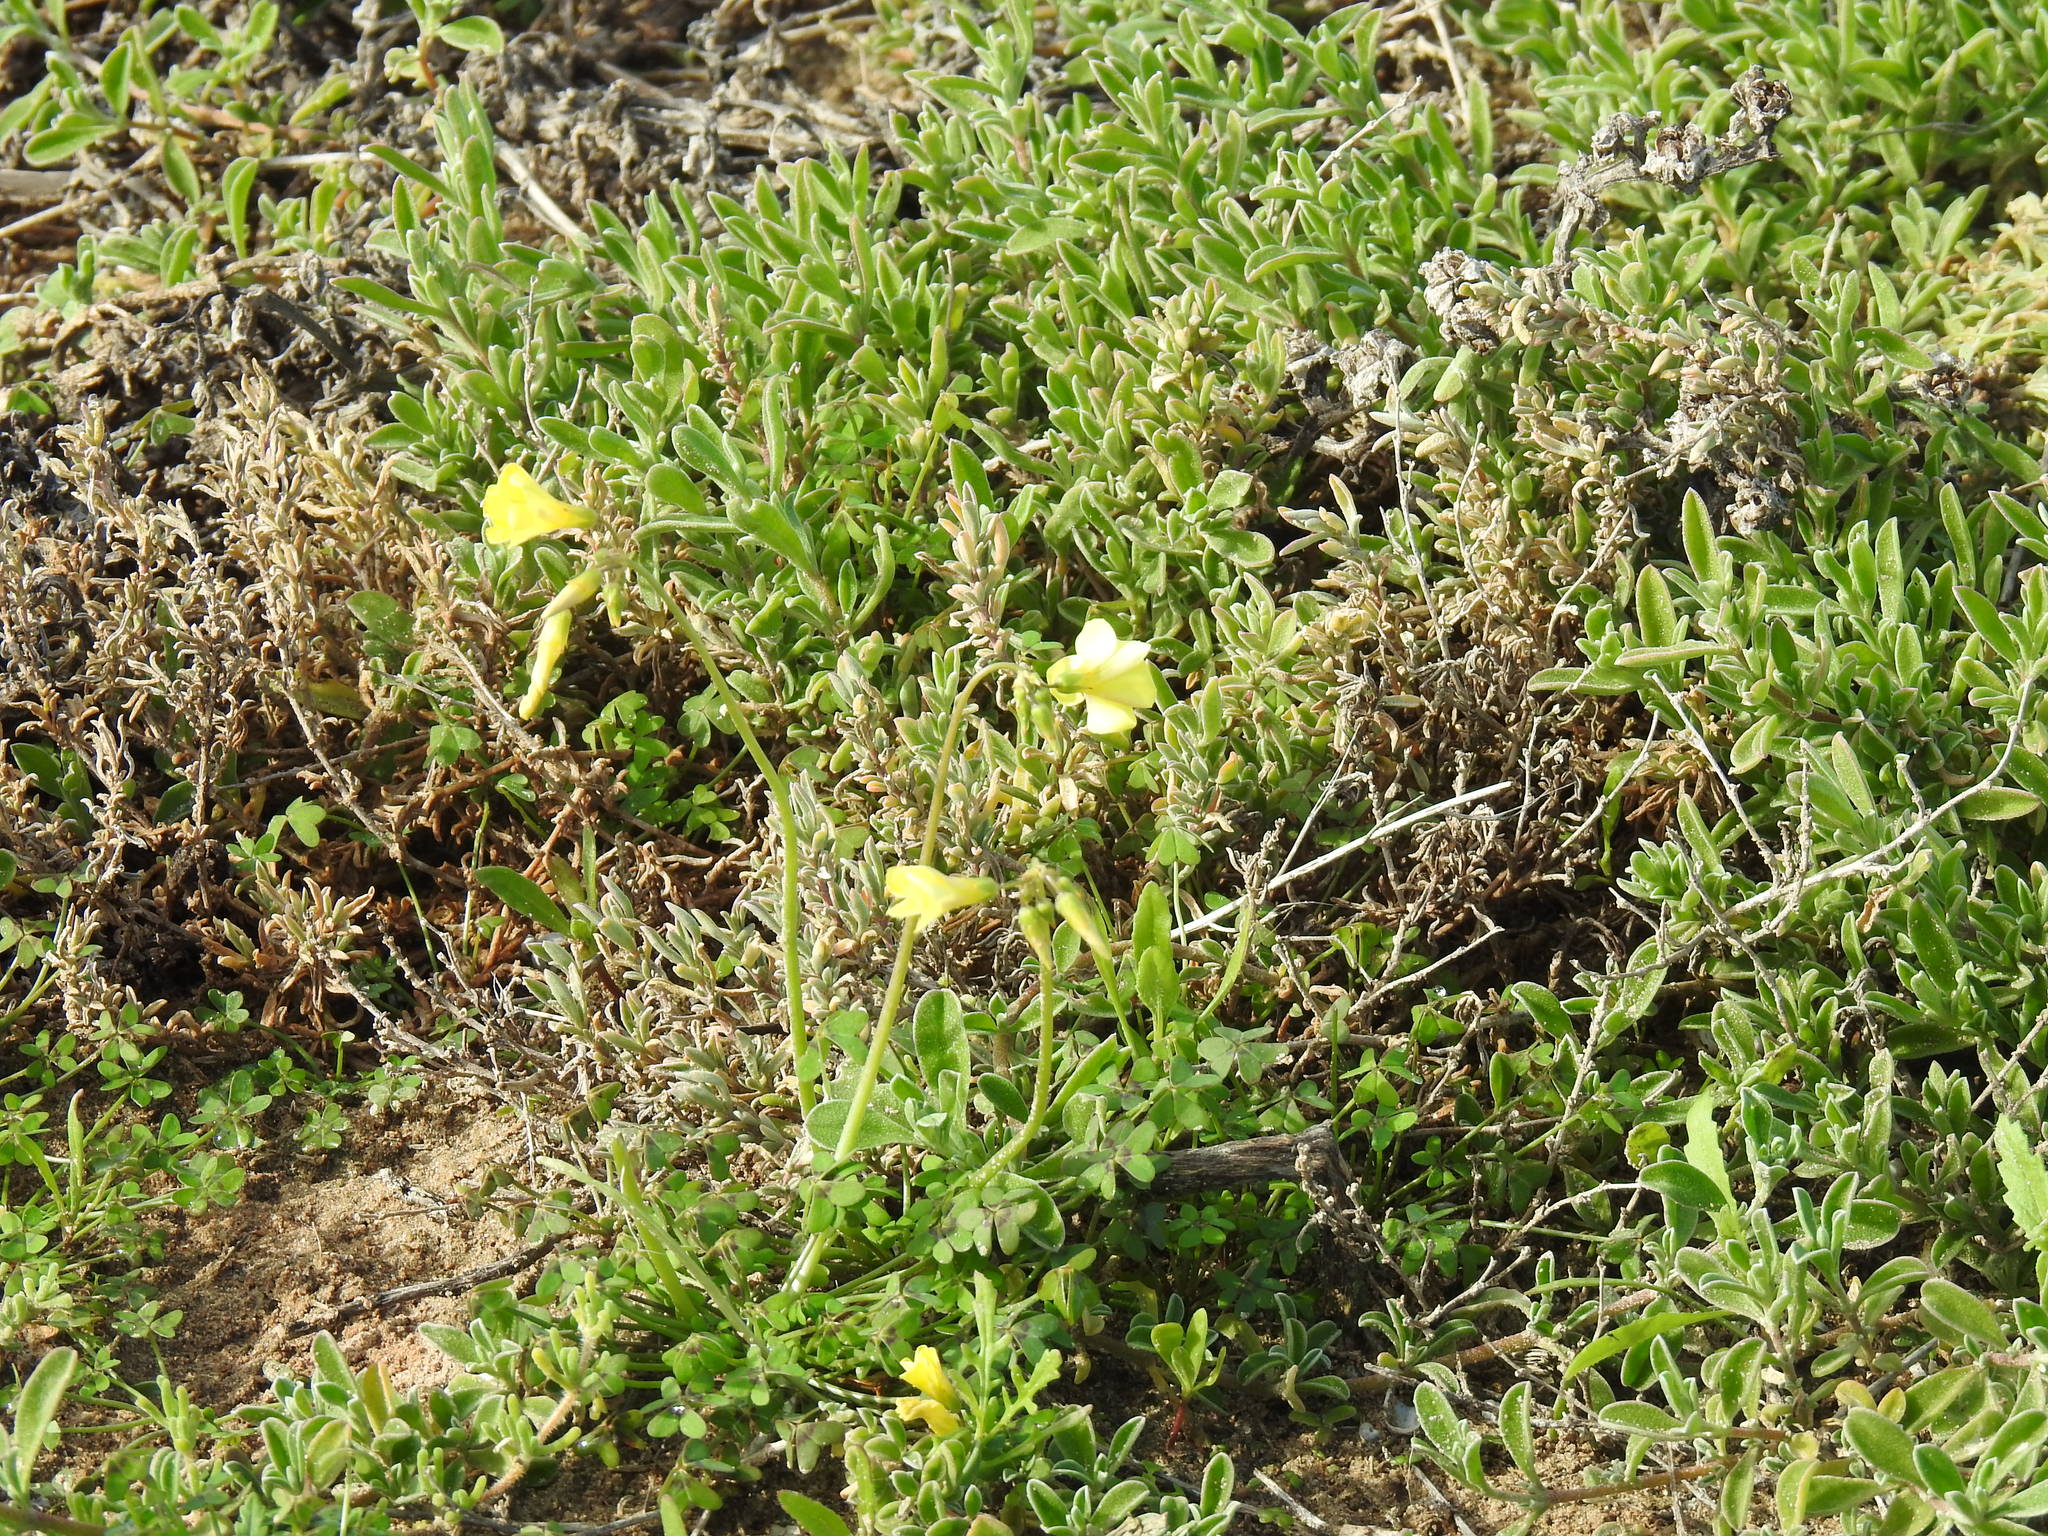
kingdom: Plantae
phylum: Tracheophyta
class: Magnoliopsida
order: Oxalidales
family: Oxalidaceae
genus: Oxalis
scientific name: Oxalis pes-caprae
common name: Bermuda-buttercup
